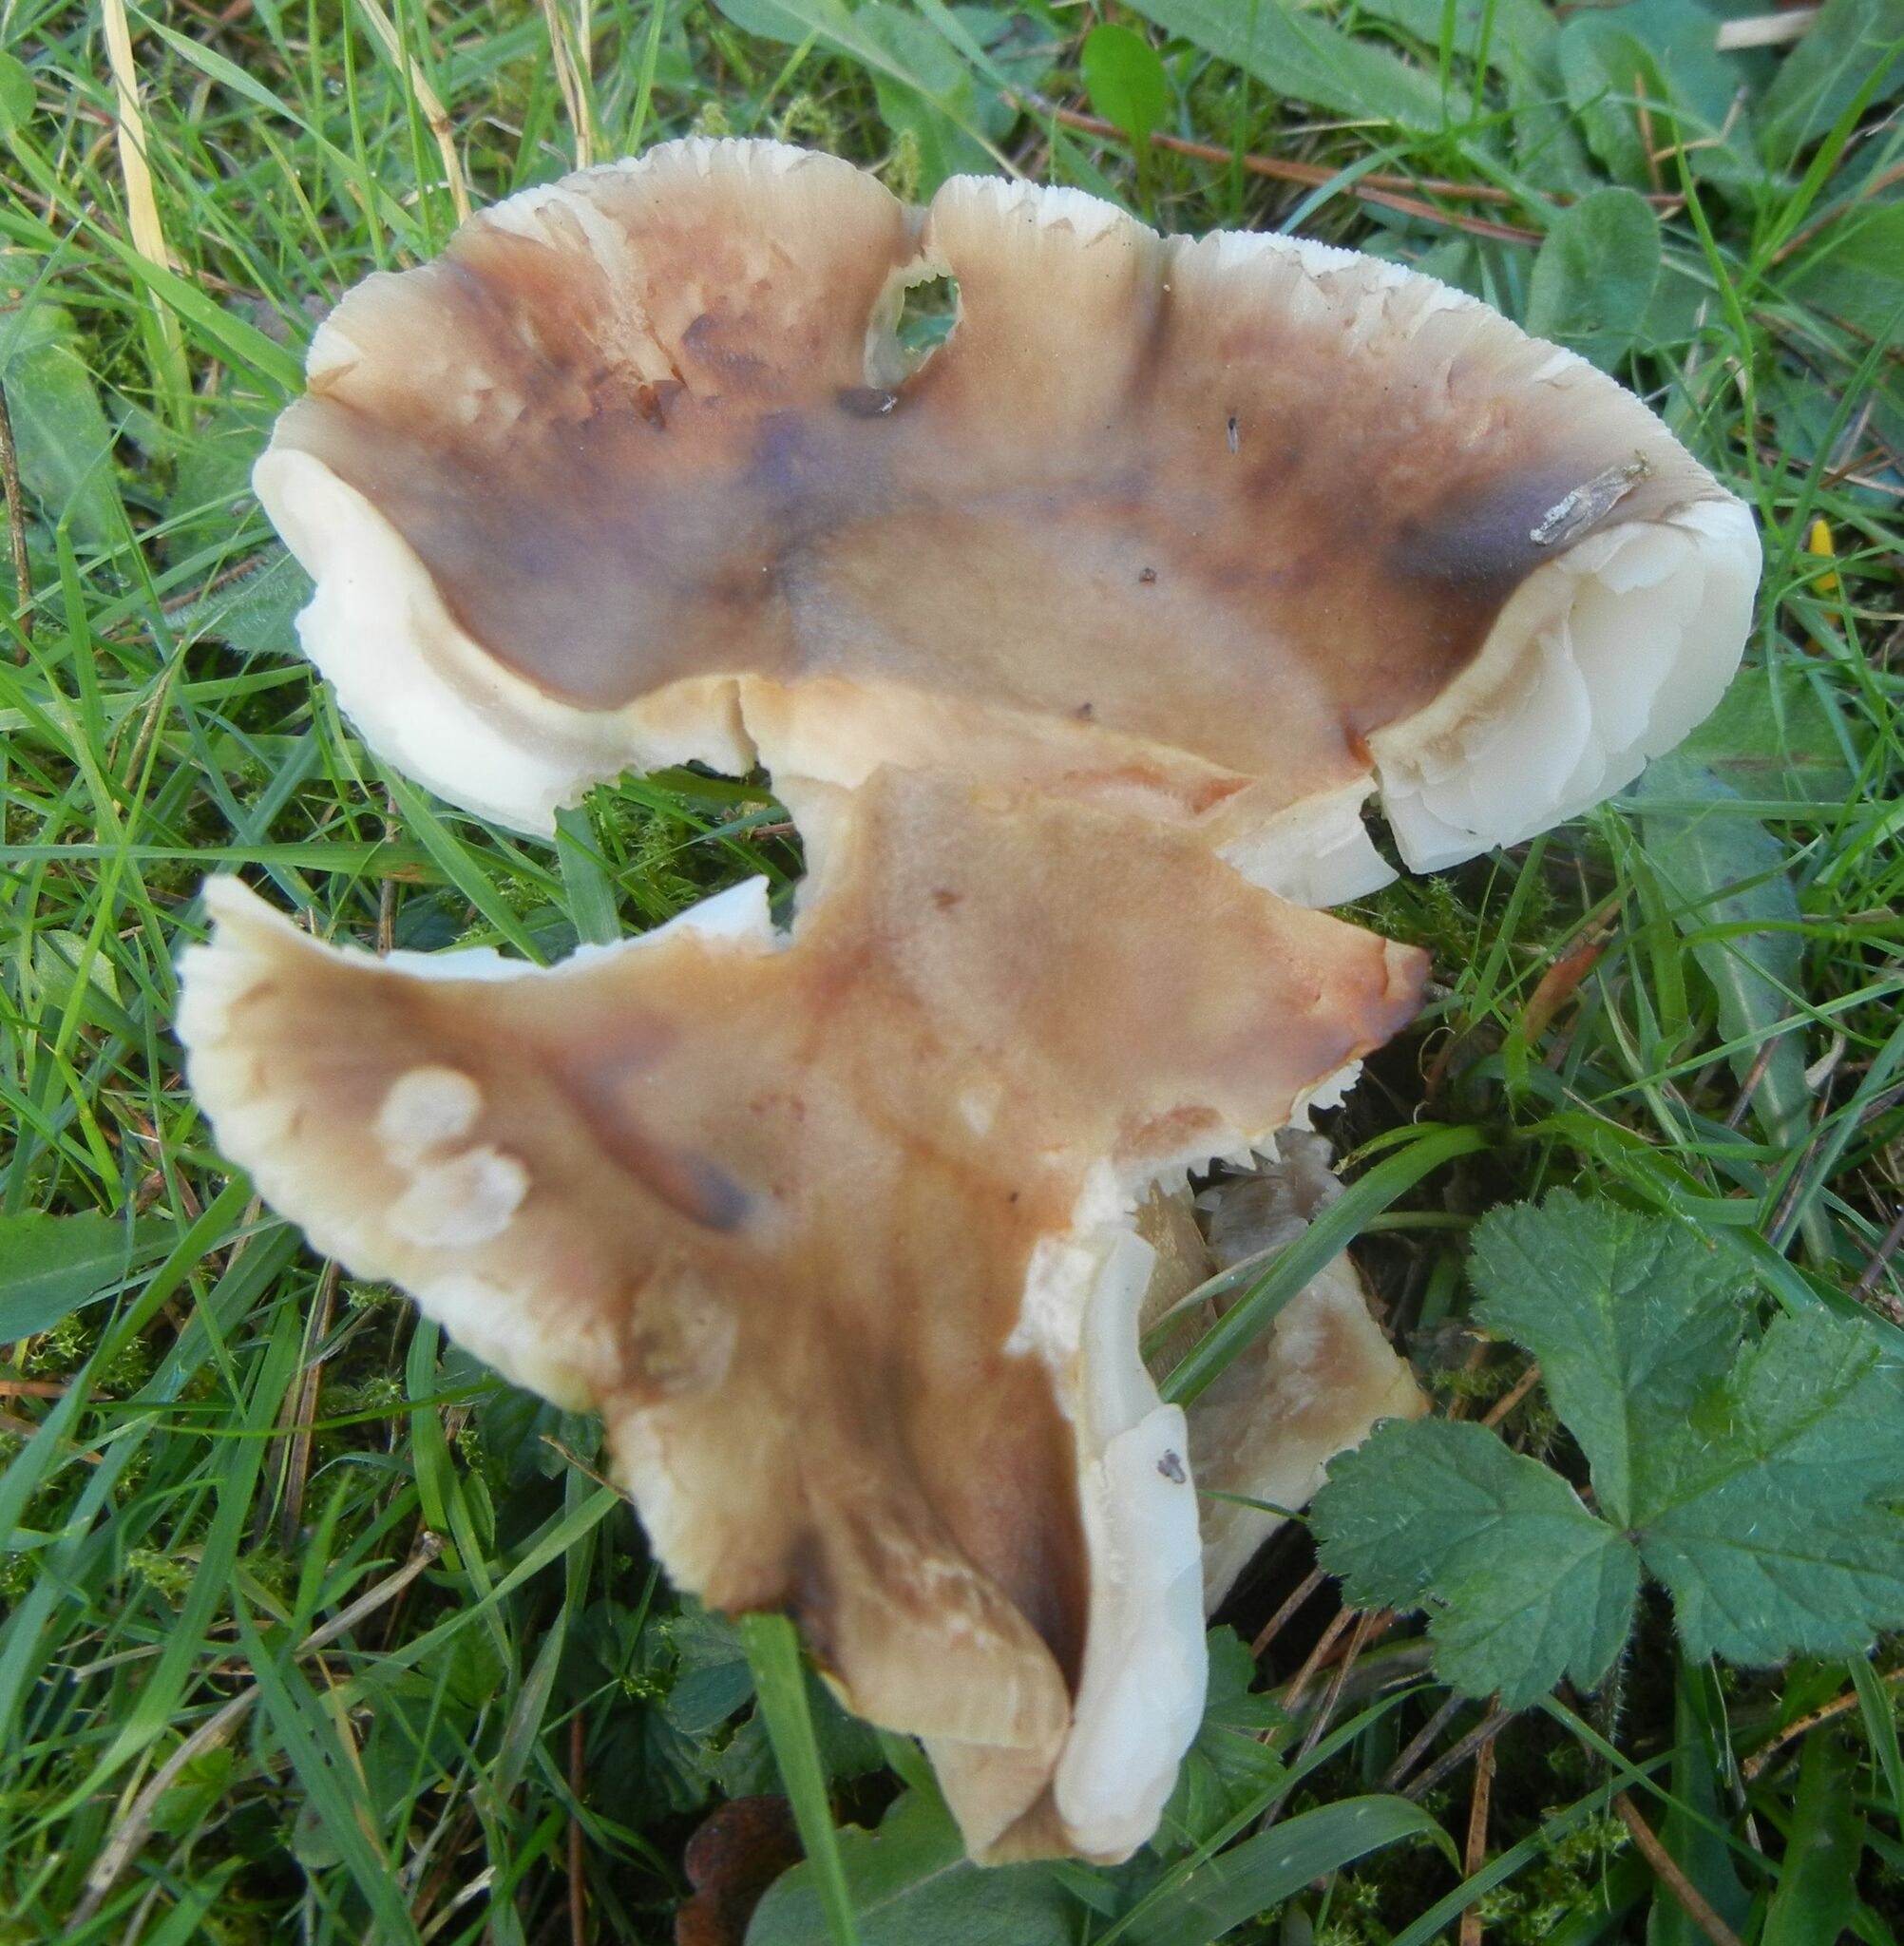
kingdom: Fungi
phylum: Basidiomycota
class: Agaricomycetes
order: Agaricales
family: Amanitaceae
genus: Amanita
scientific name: Amanita rubescens
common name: Blusher
